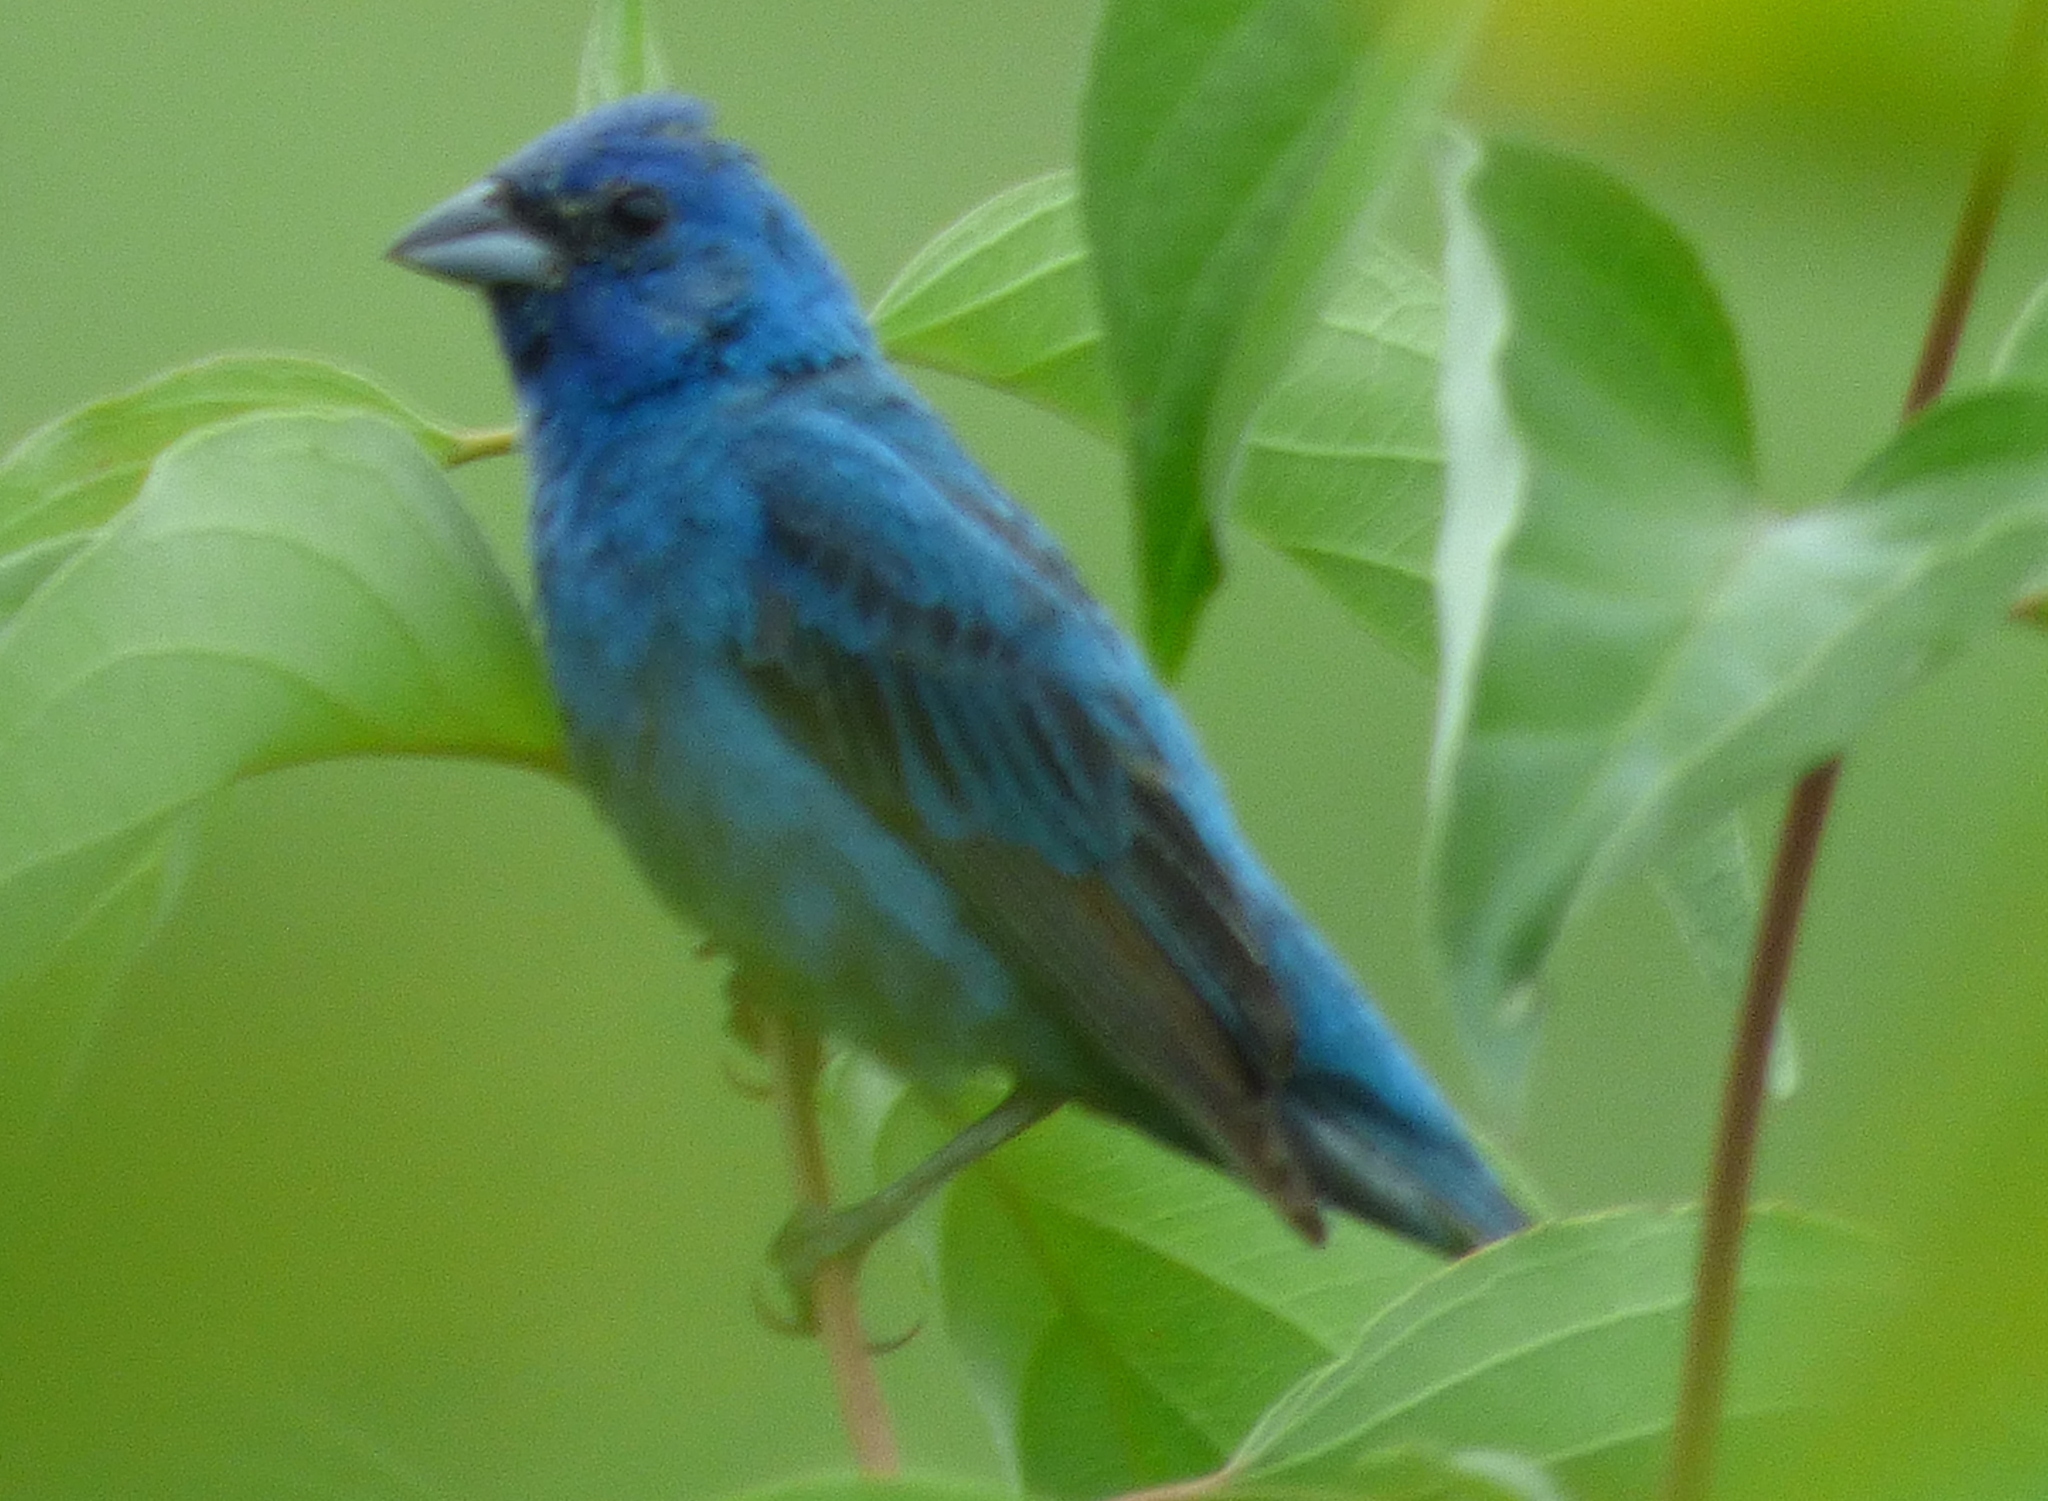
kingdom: Animalia
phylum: Chordata
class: Aves
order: Passeriformes
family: Cardinalidae
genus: Passerina
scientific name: Passerina cyanea
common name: Indigo bunting
